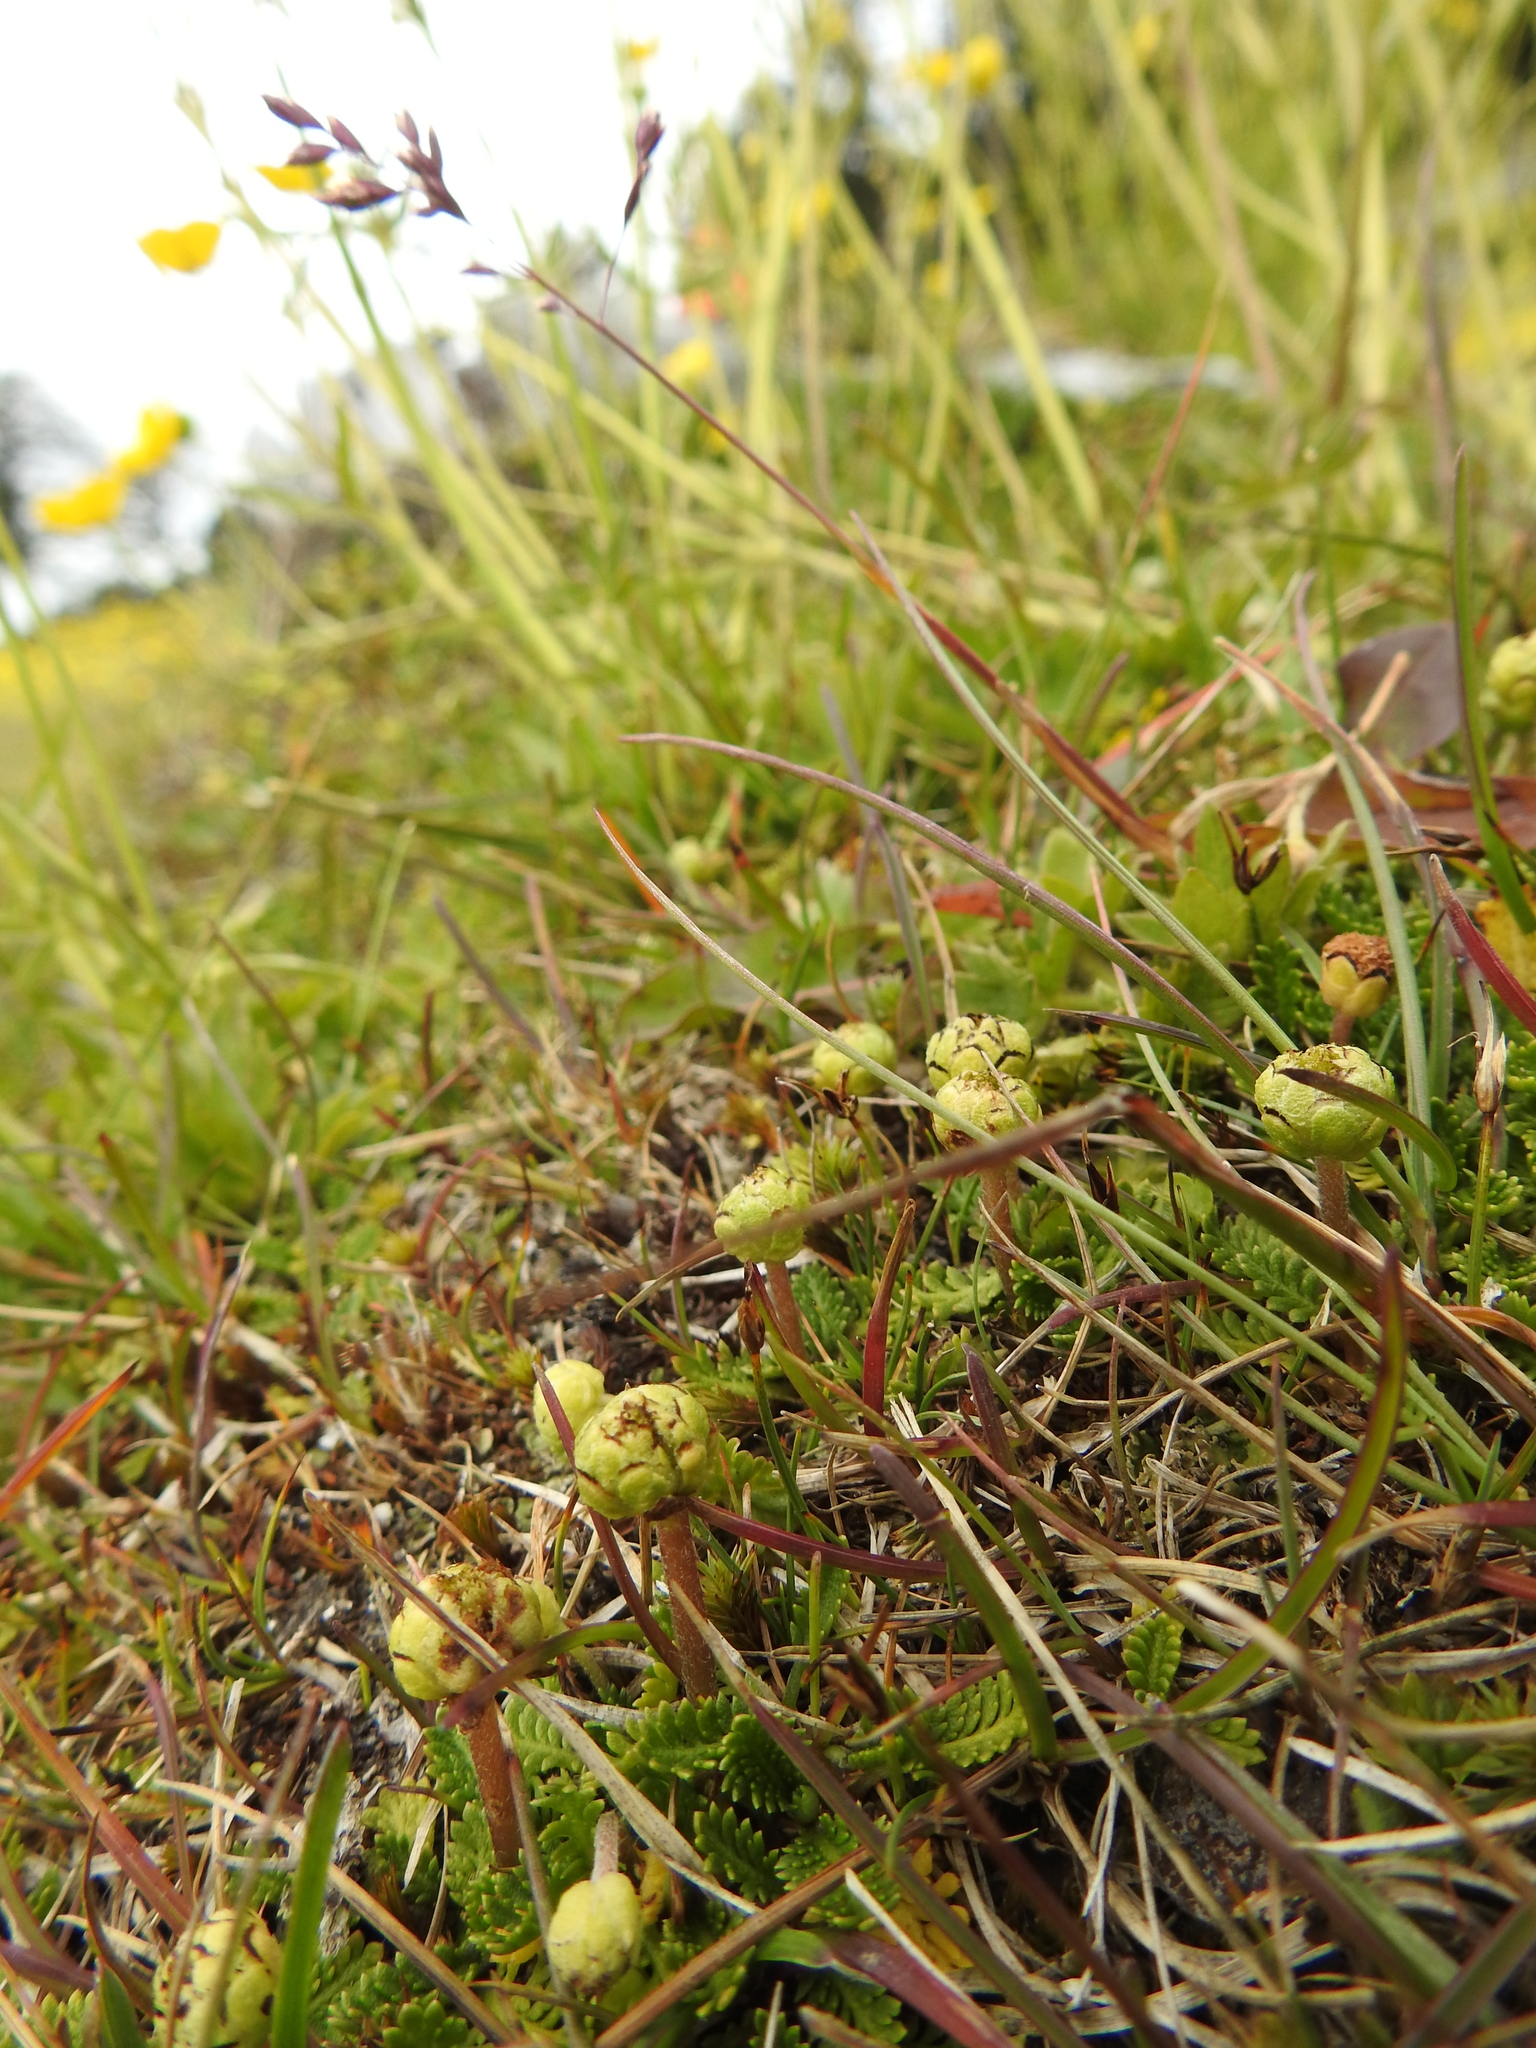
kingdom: Plantae
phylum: Tracheophyta
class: Magnoliopsida
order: Asterales
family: Asteraceae
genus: Leptinella
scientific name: Leptinella scariosa
